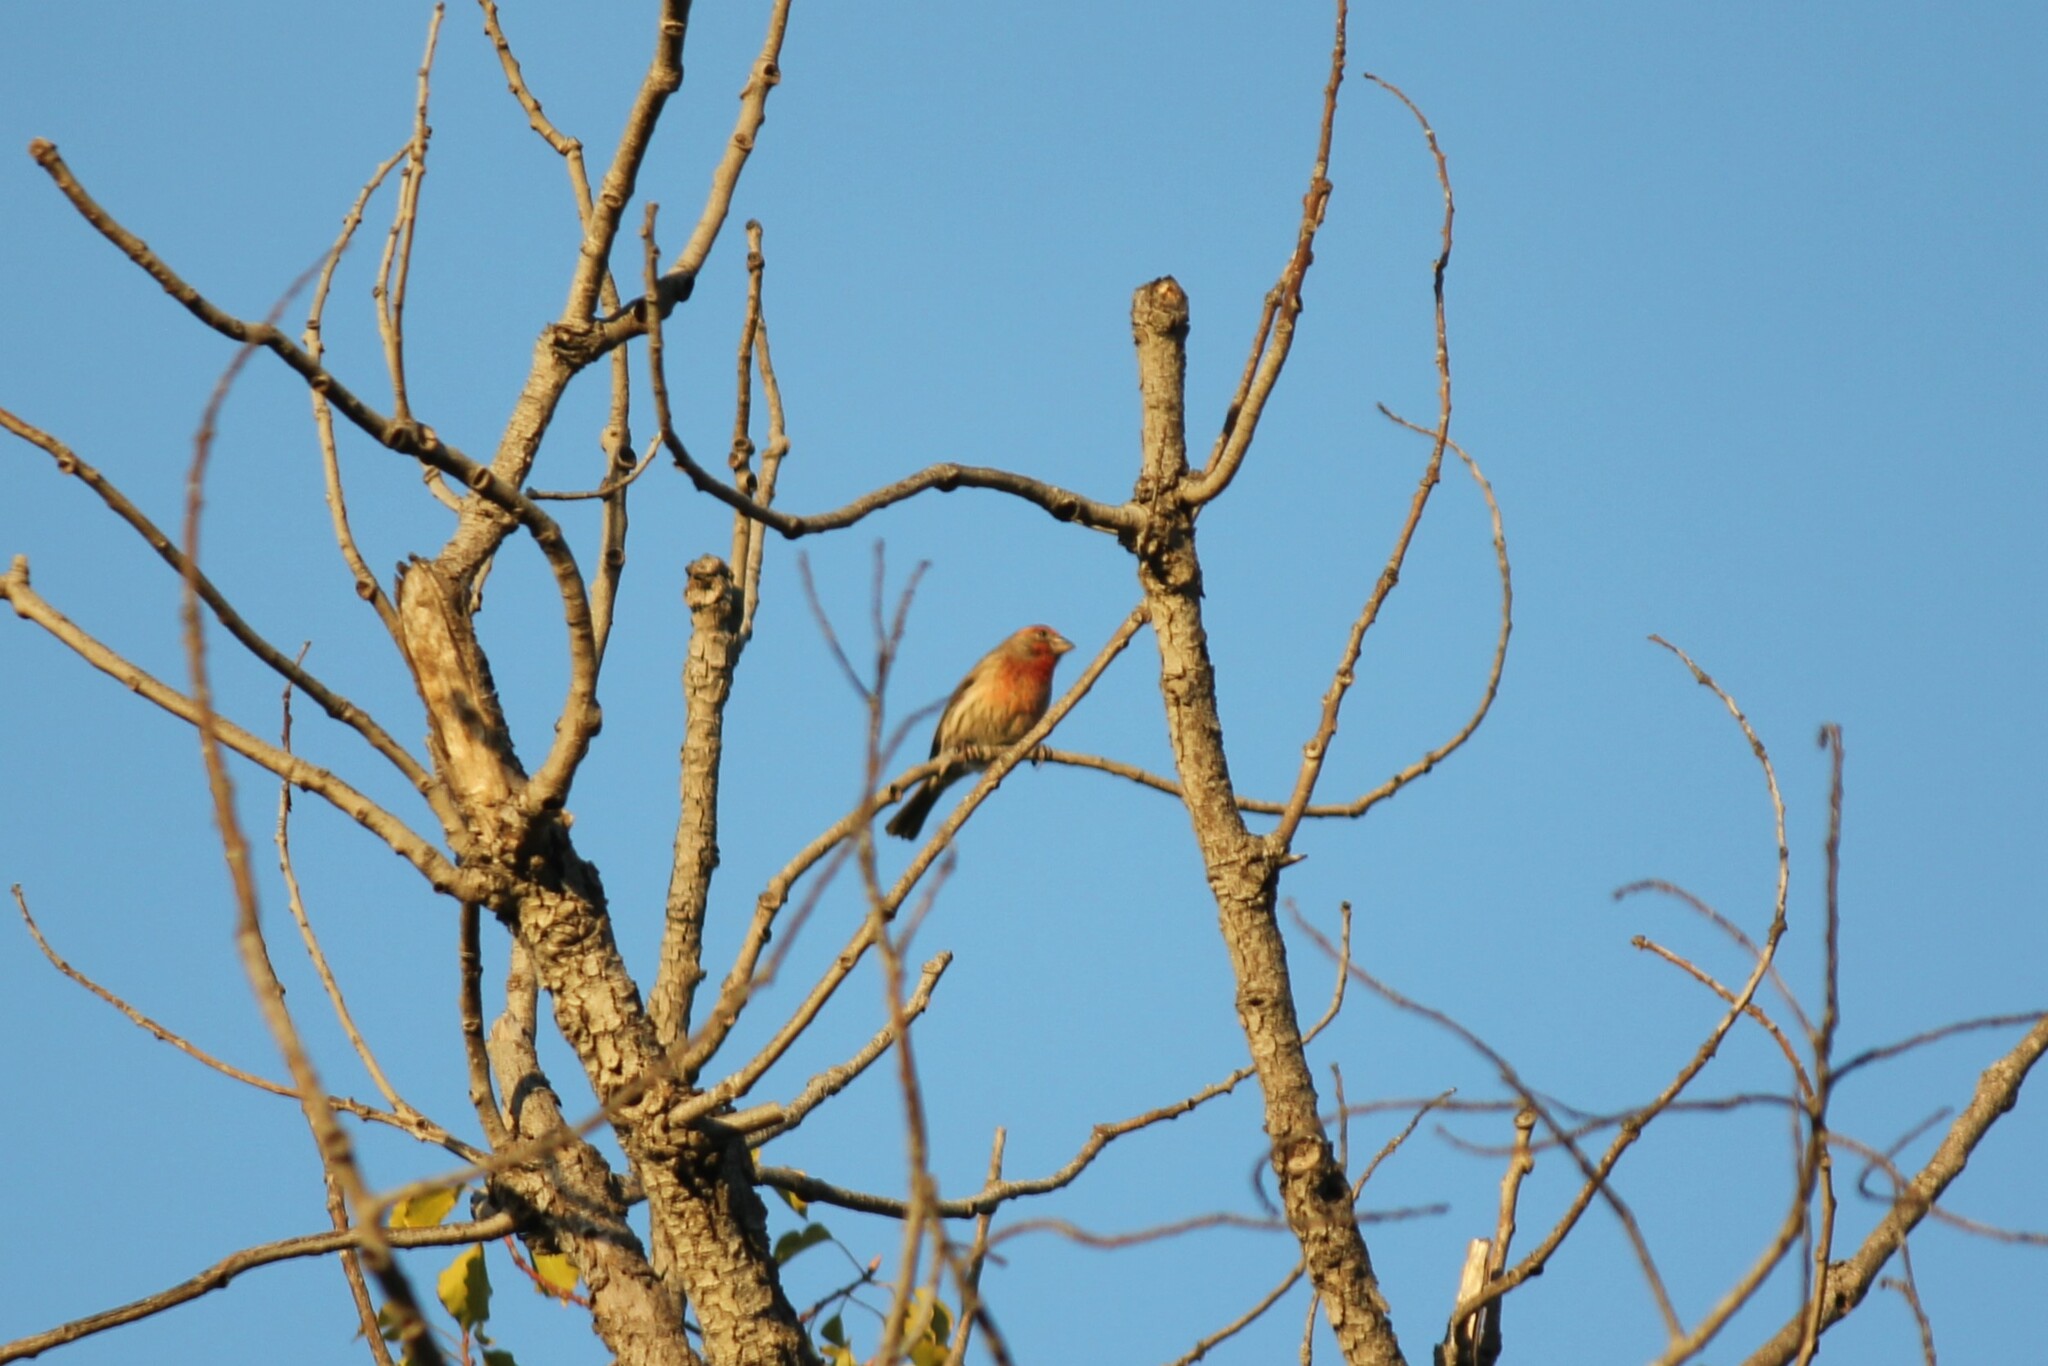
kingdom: Animalia
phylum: Chordata
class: Aves
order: Passeriformes
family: Fringillidae
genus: Haemorhous
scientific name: Haemorhous mexicanus
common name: House finch
